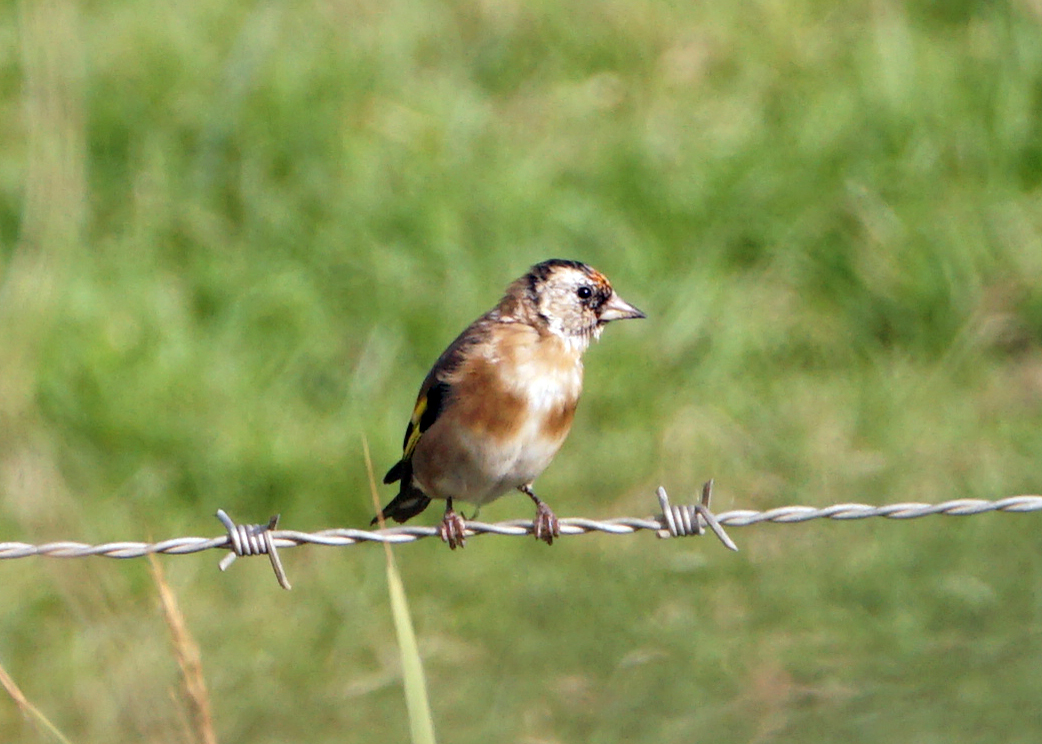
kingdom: Animalia
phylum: Chordata
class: Aves
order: Passeriformes
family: Fringillidae
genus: Carduelis
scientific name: Carduelis carduelis
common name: European goldfinch
